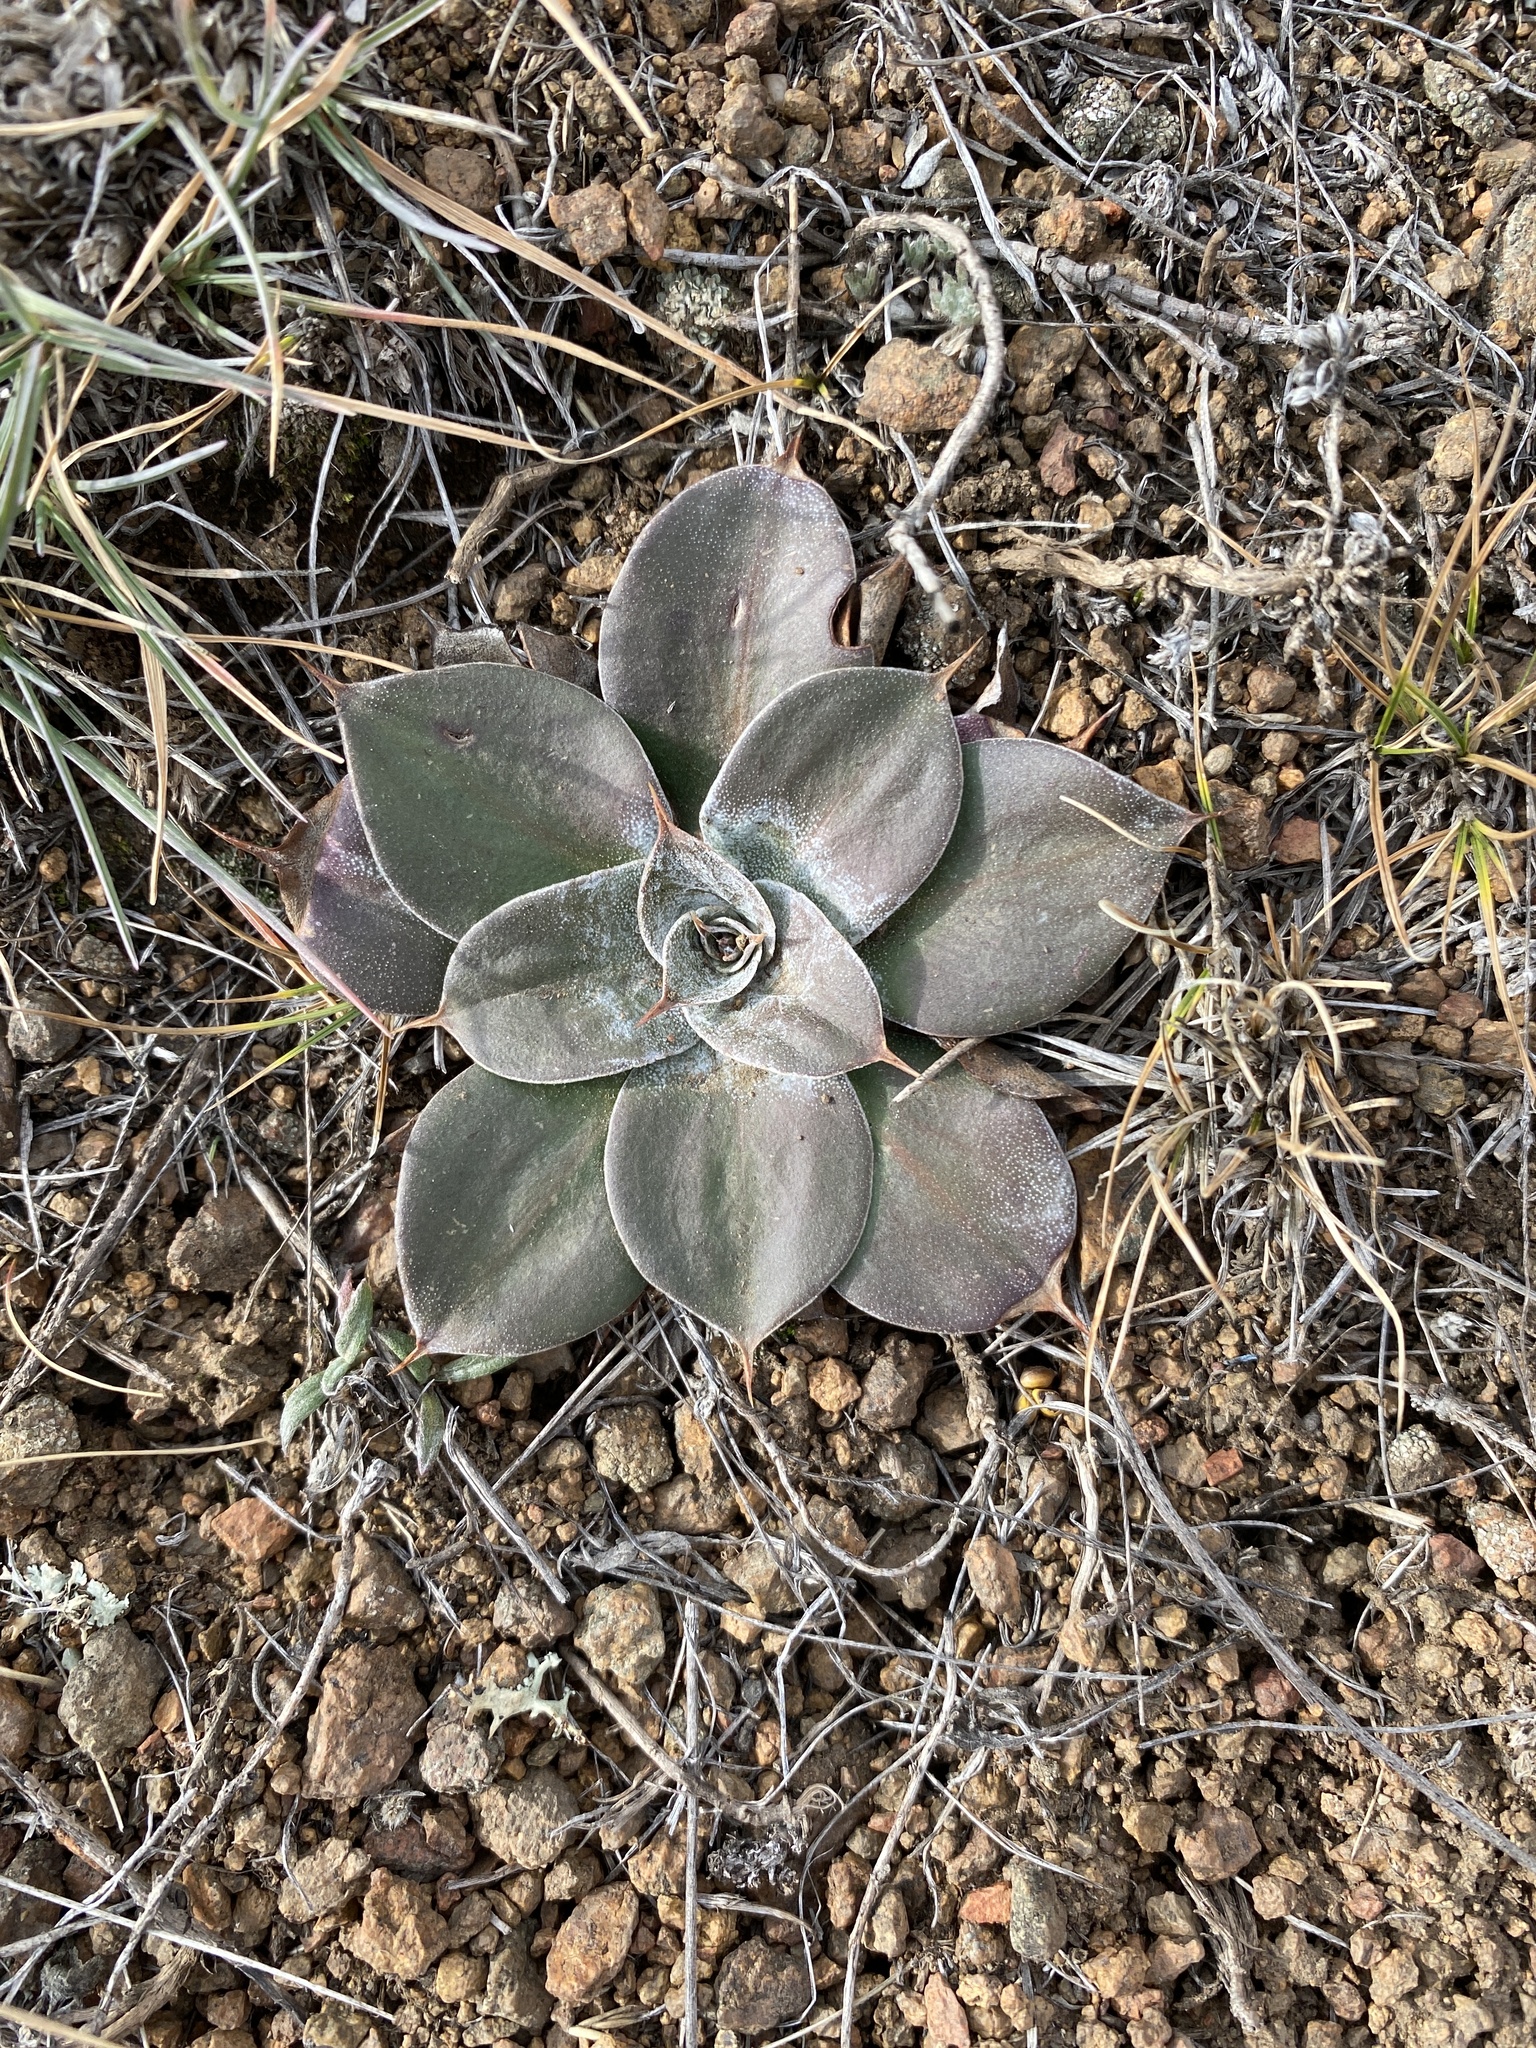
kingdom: Plantae
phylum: Tracheophyta
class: Magnoliopsida
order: Caryophyllales
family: Plumbaginaceae
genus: Goniolimon
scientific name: Goniolimon speciosum
